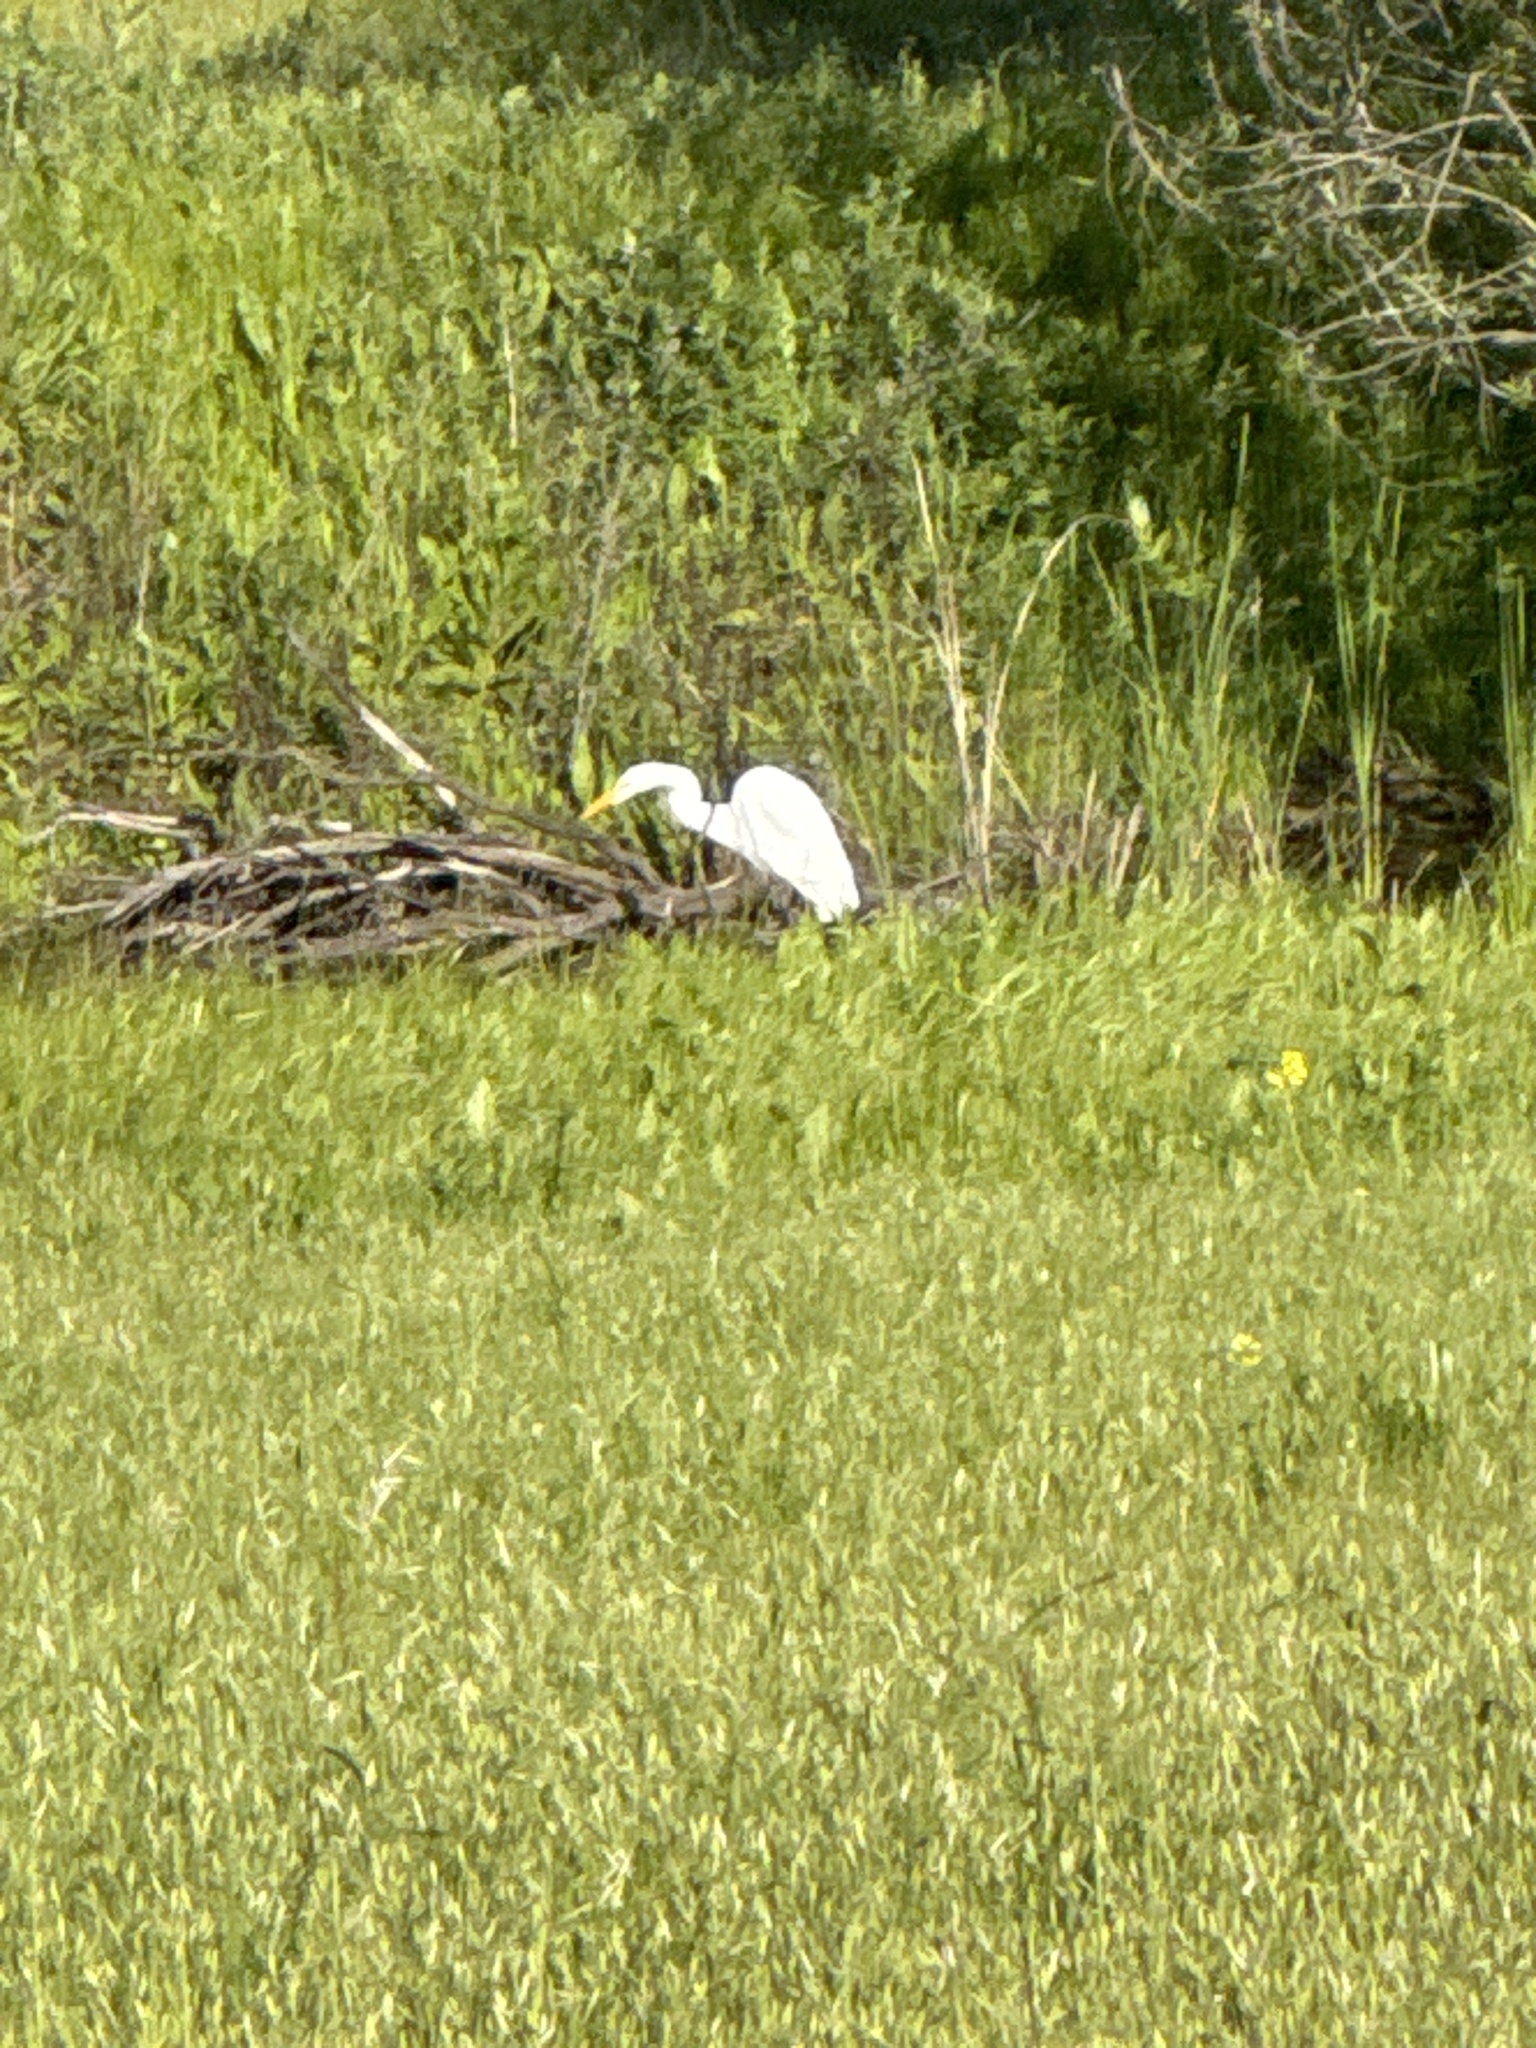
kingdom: Animalia
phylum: Chordata
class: Aves
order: Pelecaniformes
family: Ardeidae
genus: Ardea
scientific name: Ardea alba
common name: Great egret
